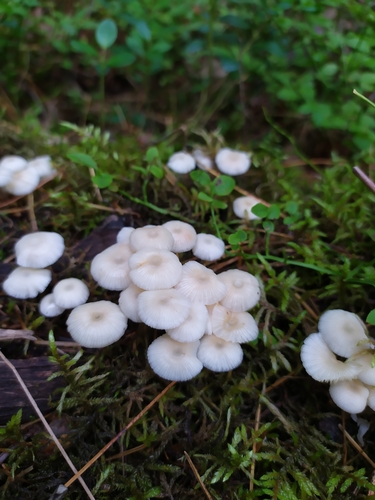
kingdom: Fungi
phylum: Basidiomycota
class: Agaricomycetes
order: Agaricales
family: Mycenaceae
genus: Mycena
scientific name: Mycena laevigata
